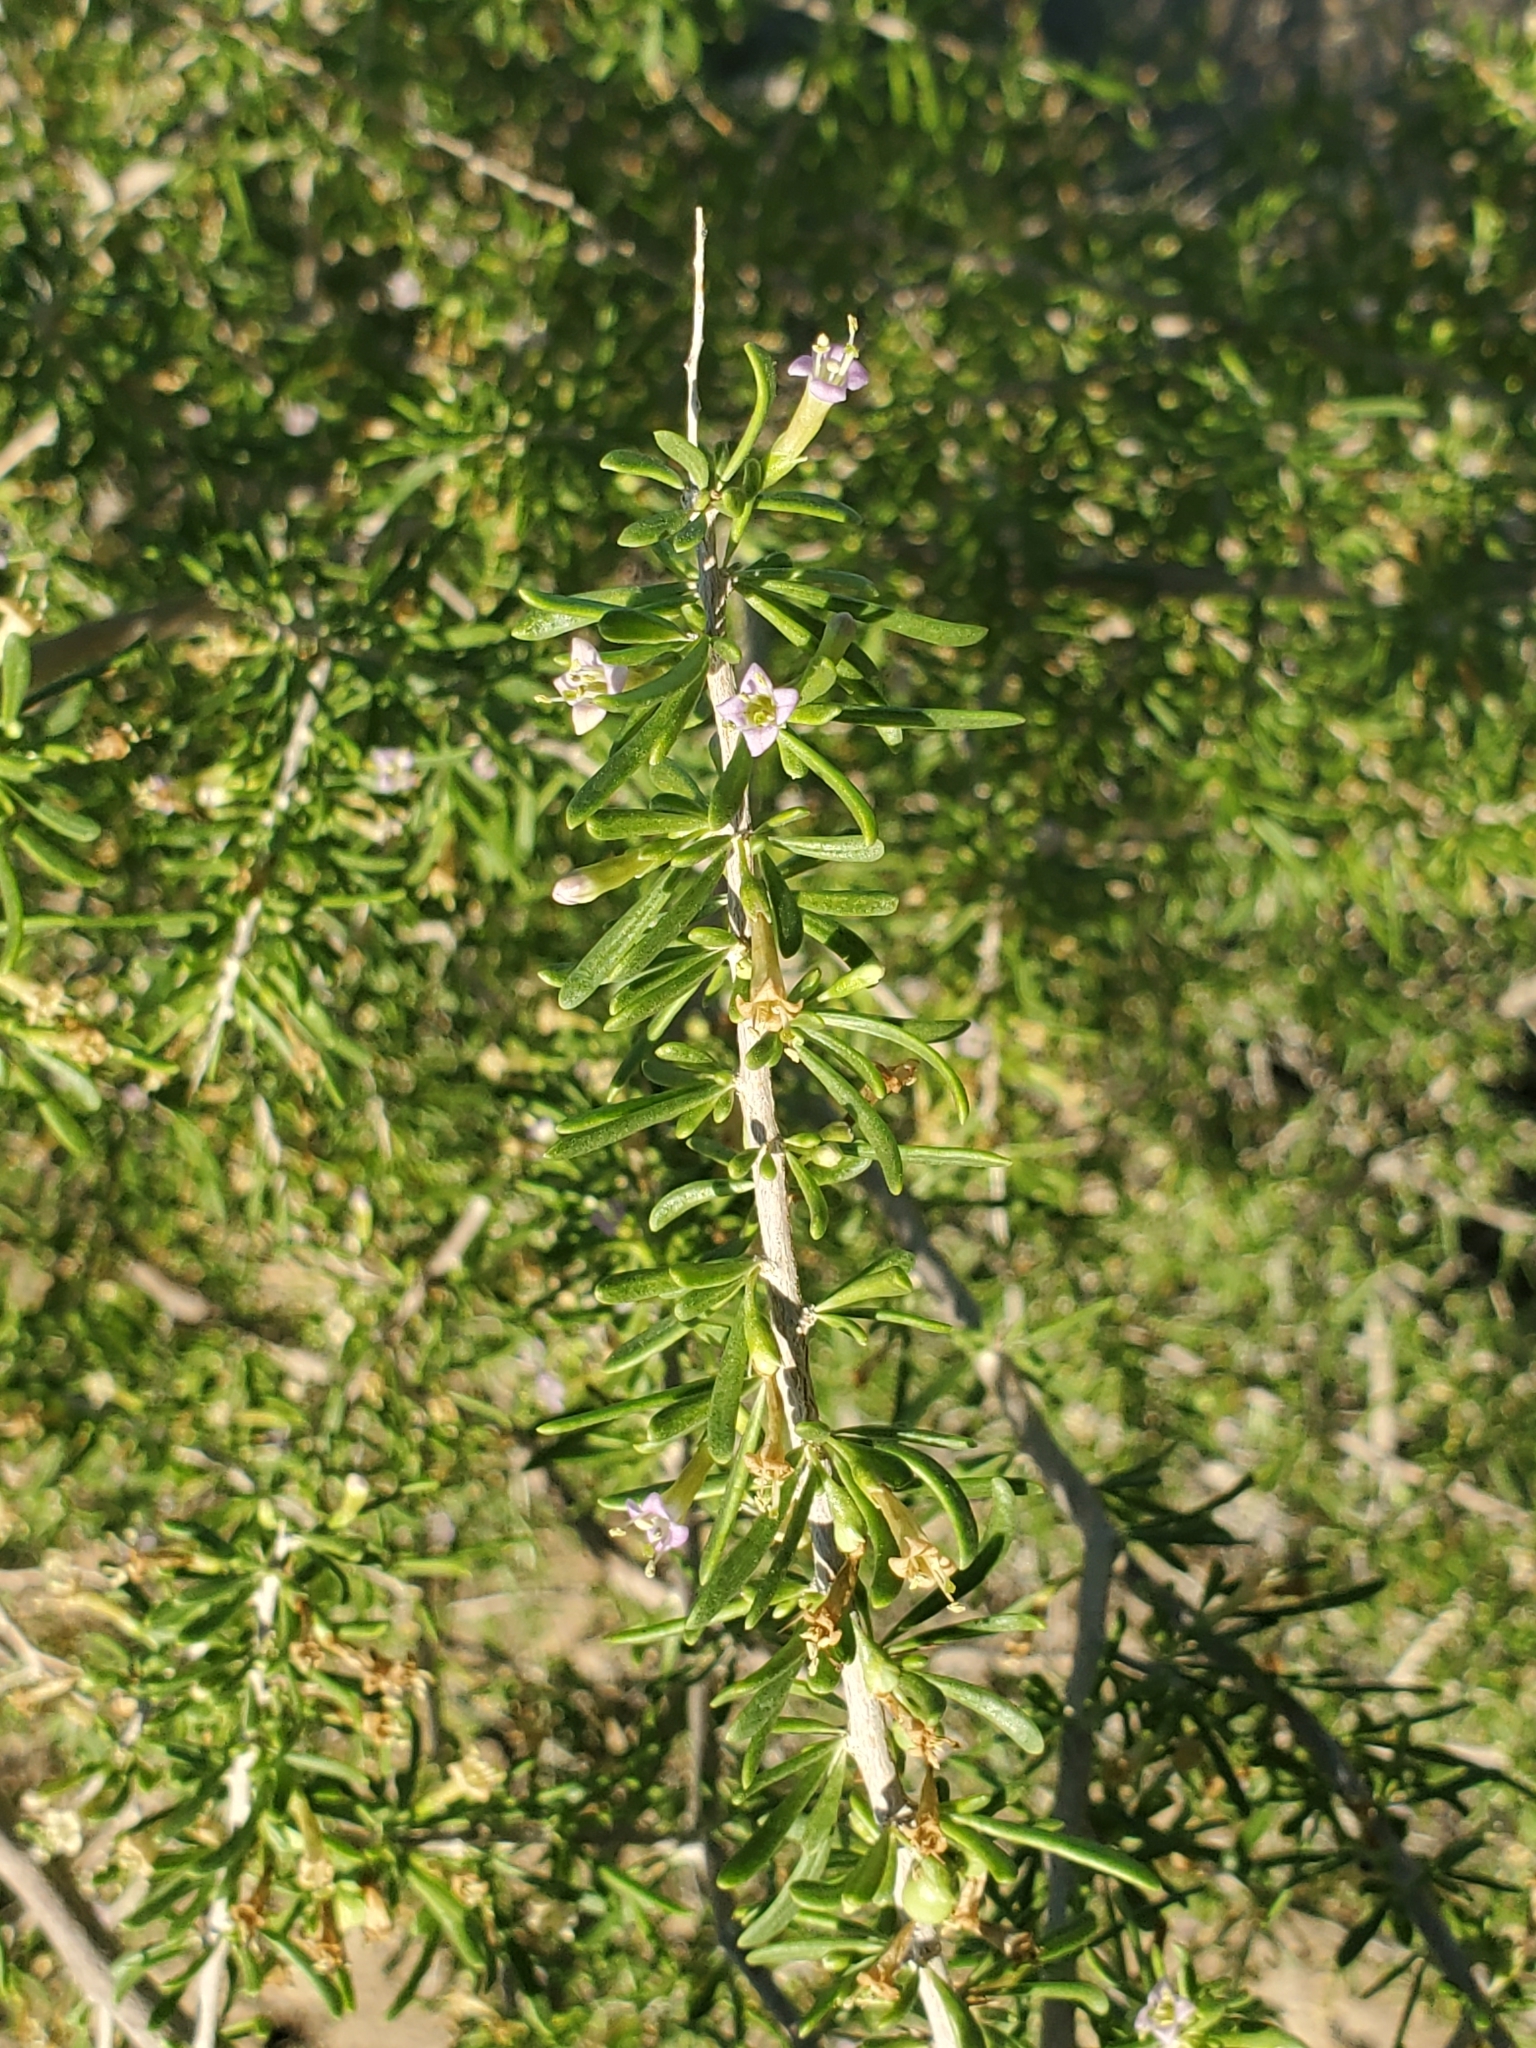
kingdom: Plantae
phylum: Tracheophyta
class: Magnoliopsida
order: Solanales
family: Solanaceae
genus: Lycium
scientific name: Lycium andersonii
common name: Water-jacket
